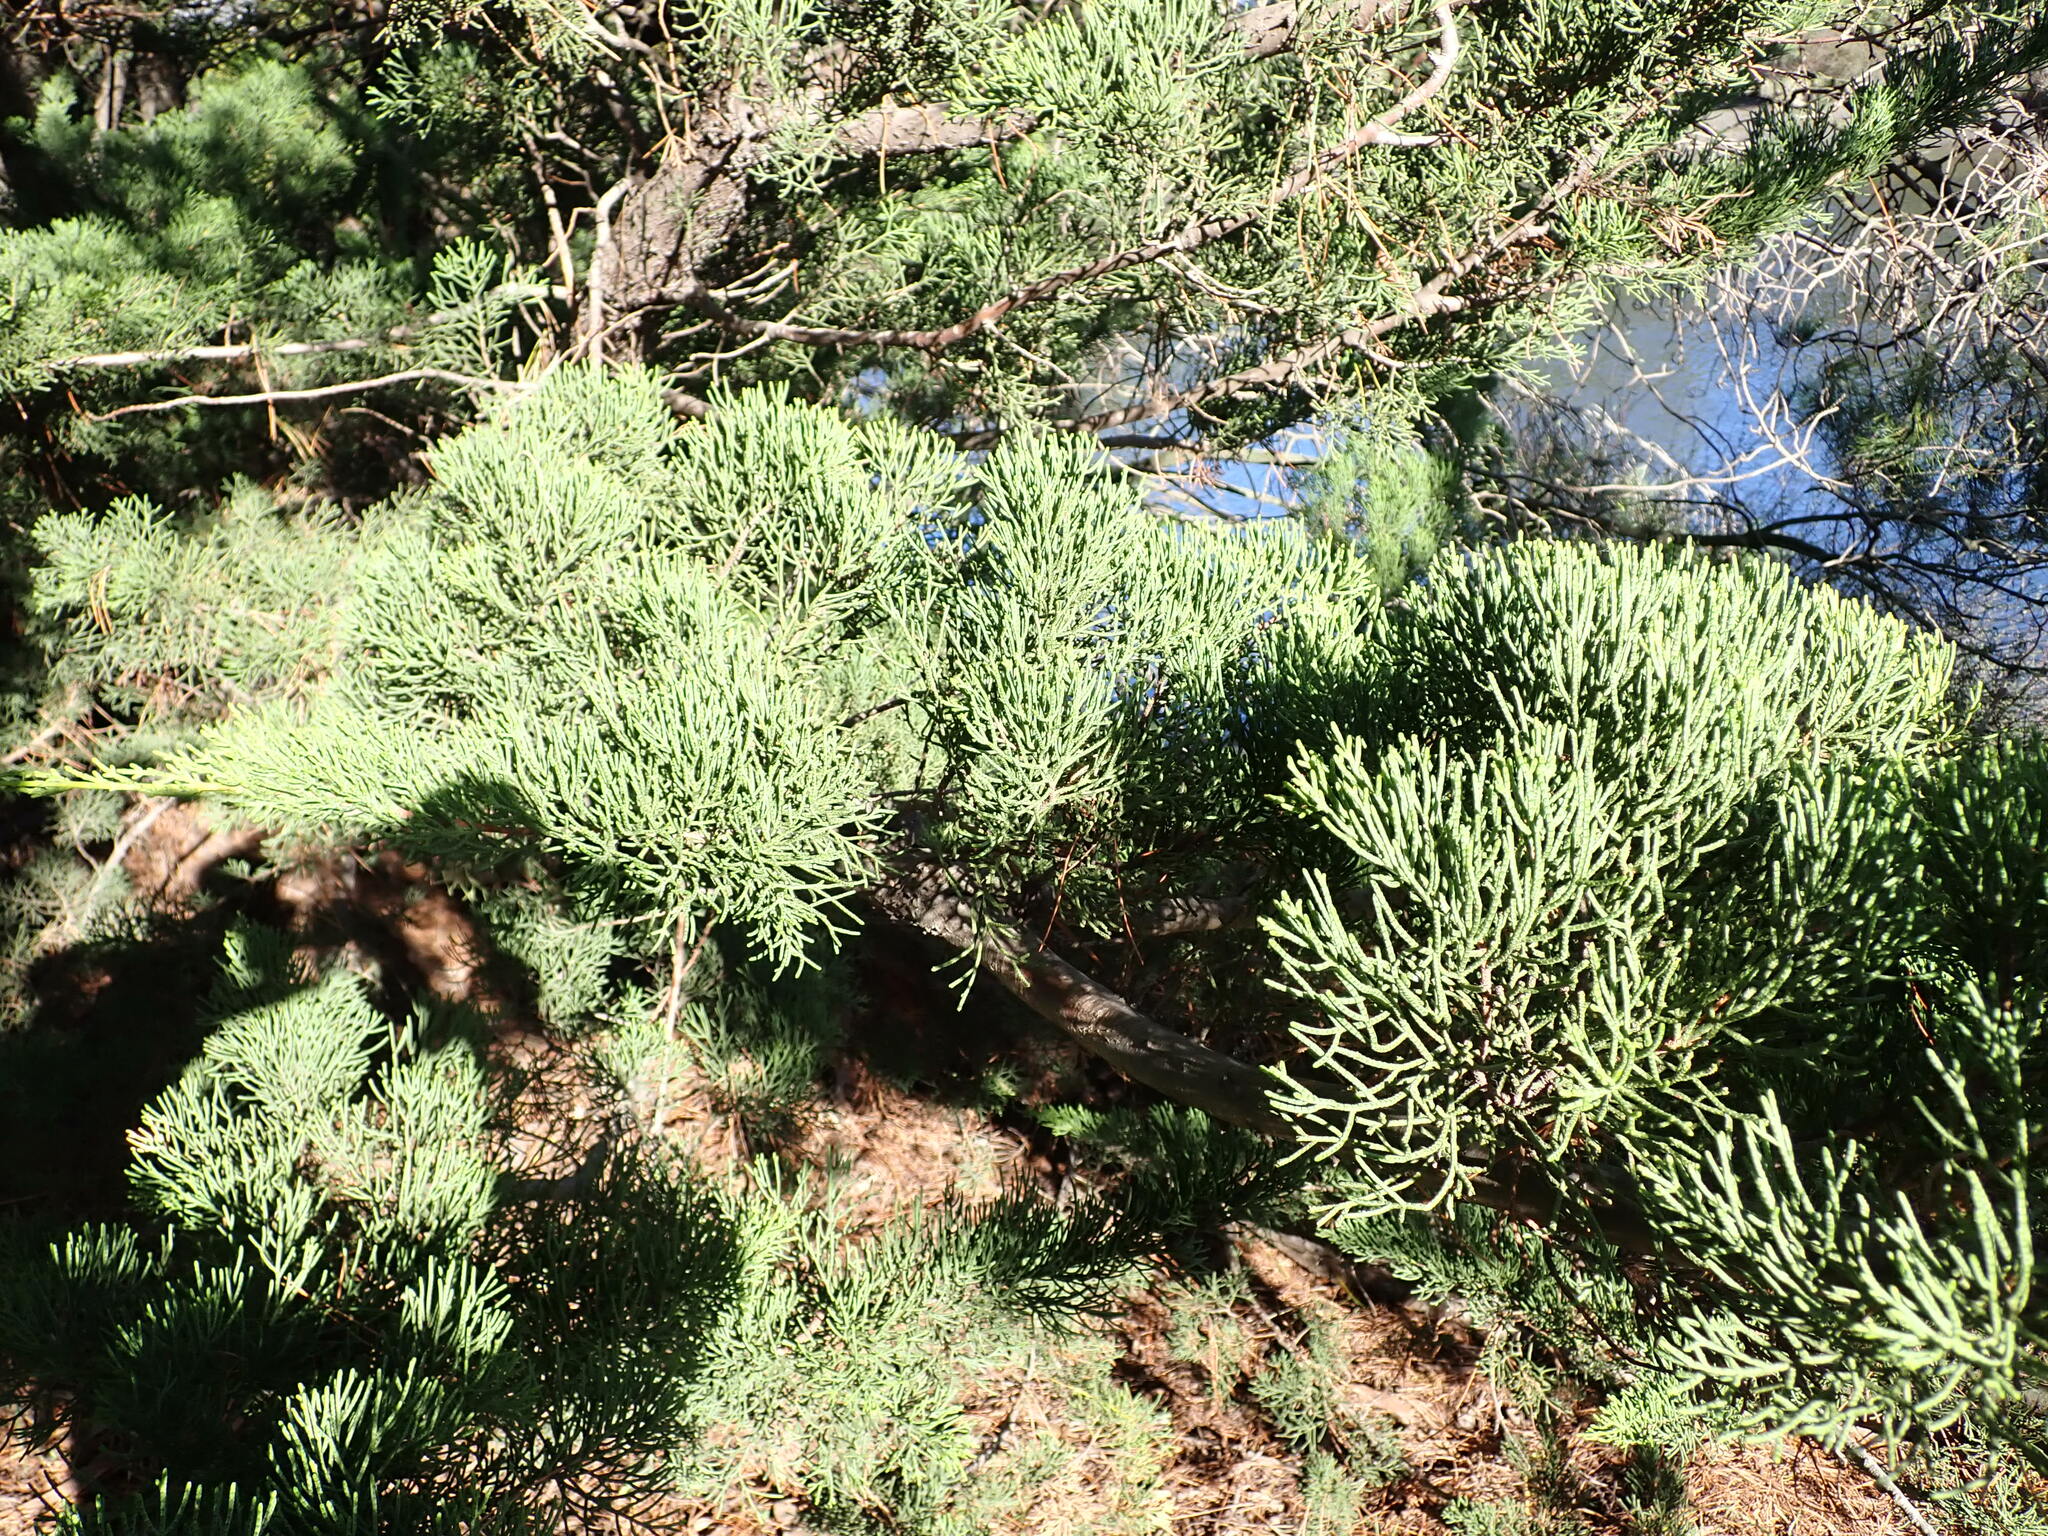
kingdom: Plantae
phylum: Tracheophyta
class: Pinopsida
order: Pinales
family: Cupressaceae
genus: Cupressus
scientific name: Cupressus macrocarpa
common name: Monterey cypress
